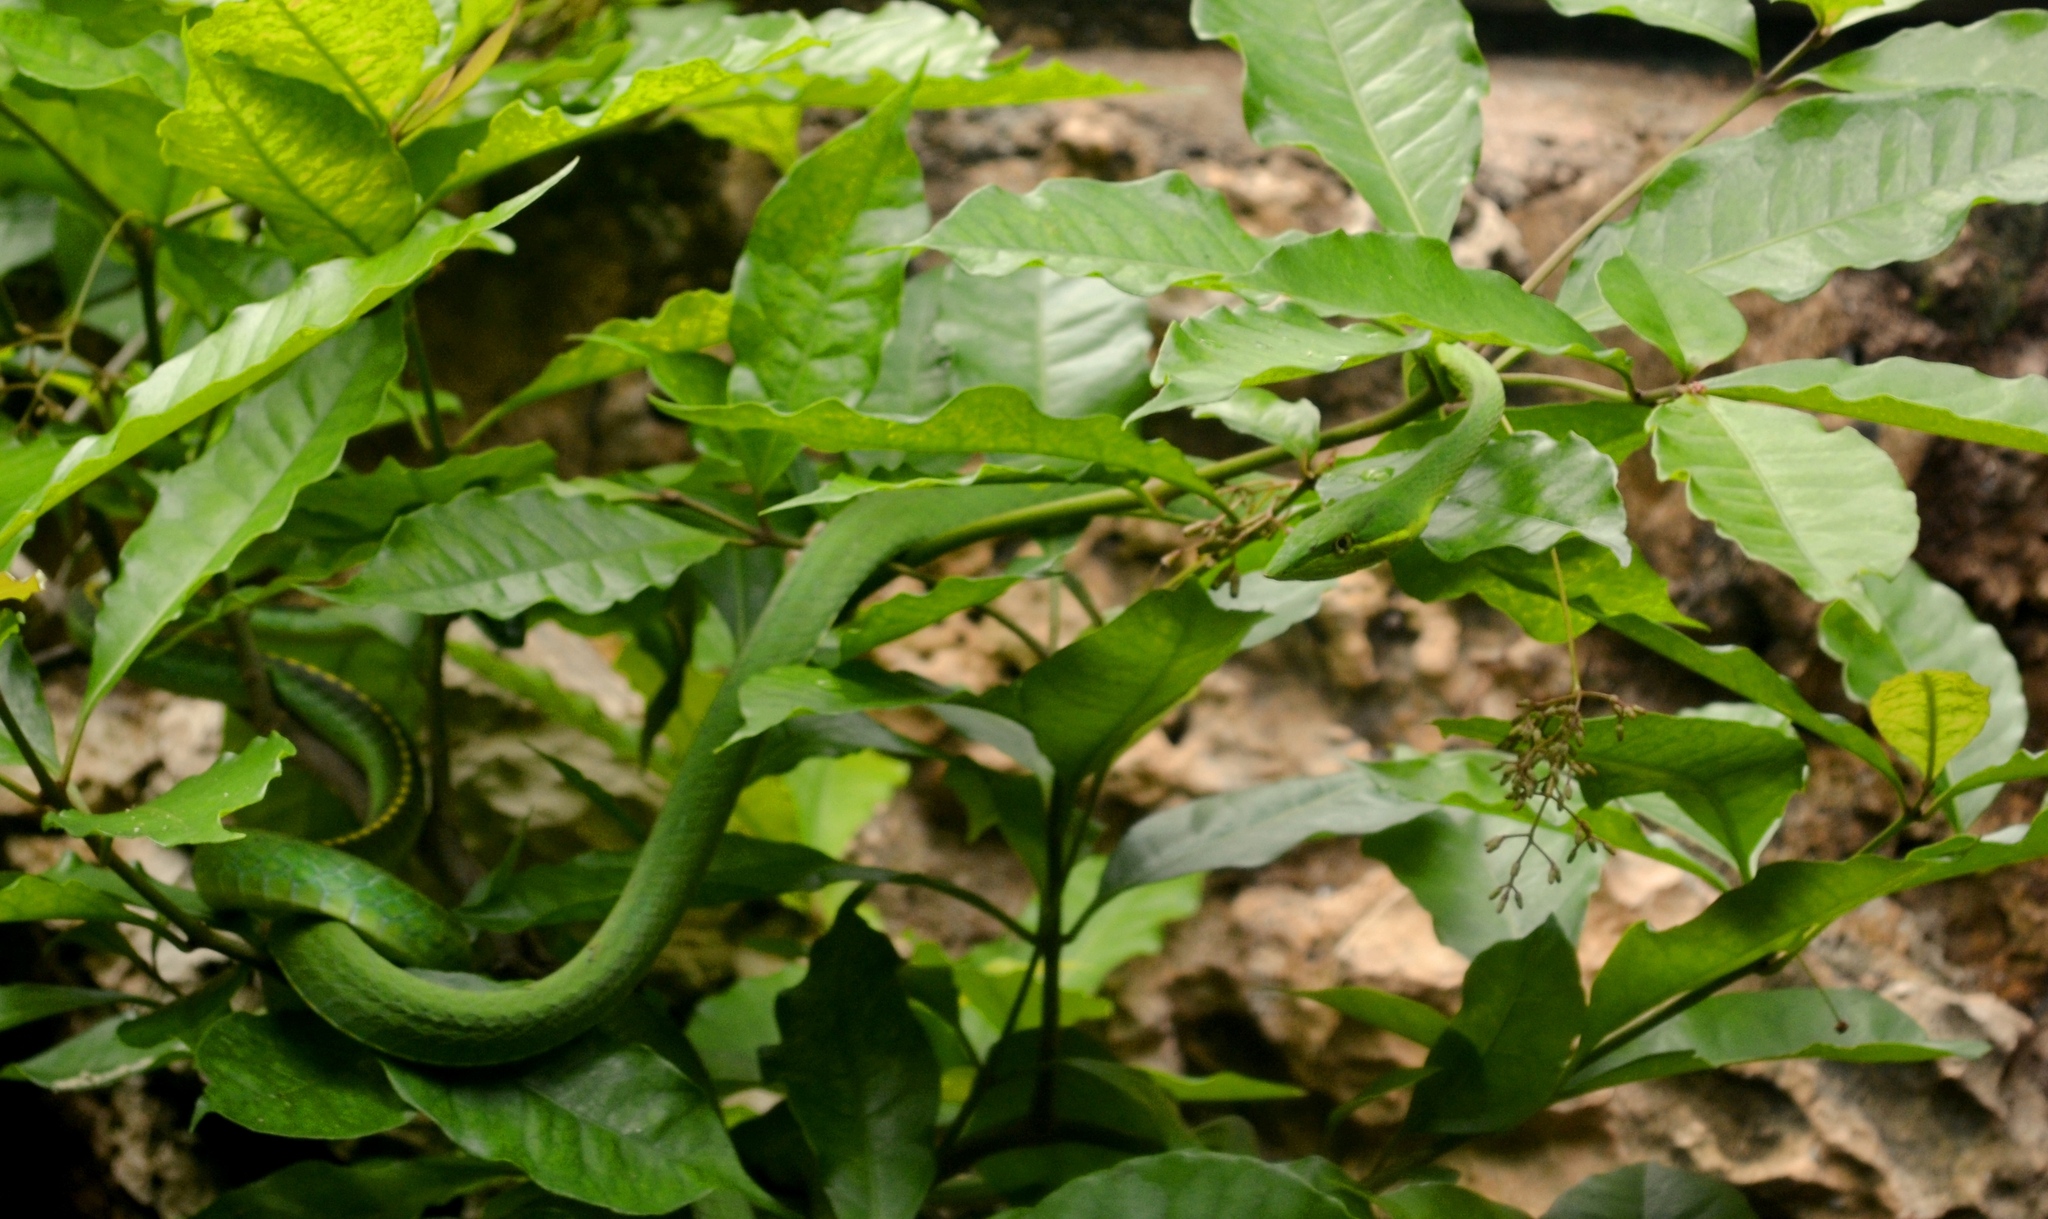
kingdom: Animalia
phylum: Chordata
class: Squamata
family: Colubridae
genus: Oxybelis
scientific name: Oxybelis fulgidus
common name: Green vine snake
